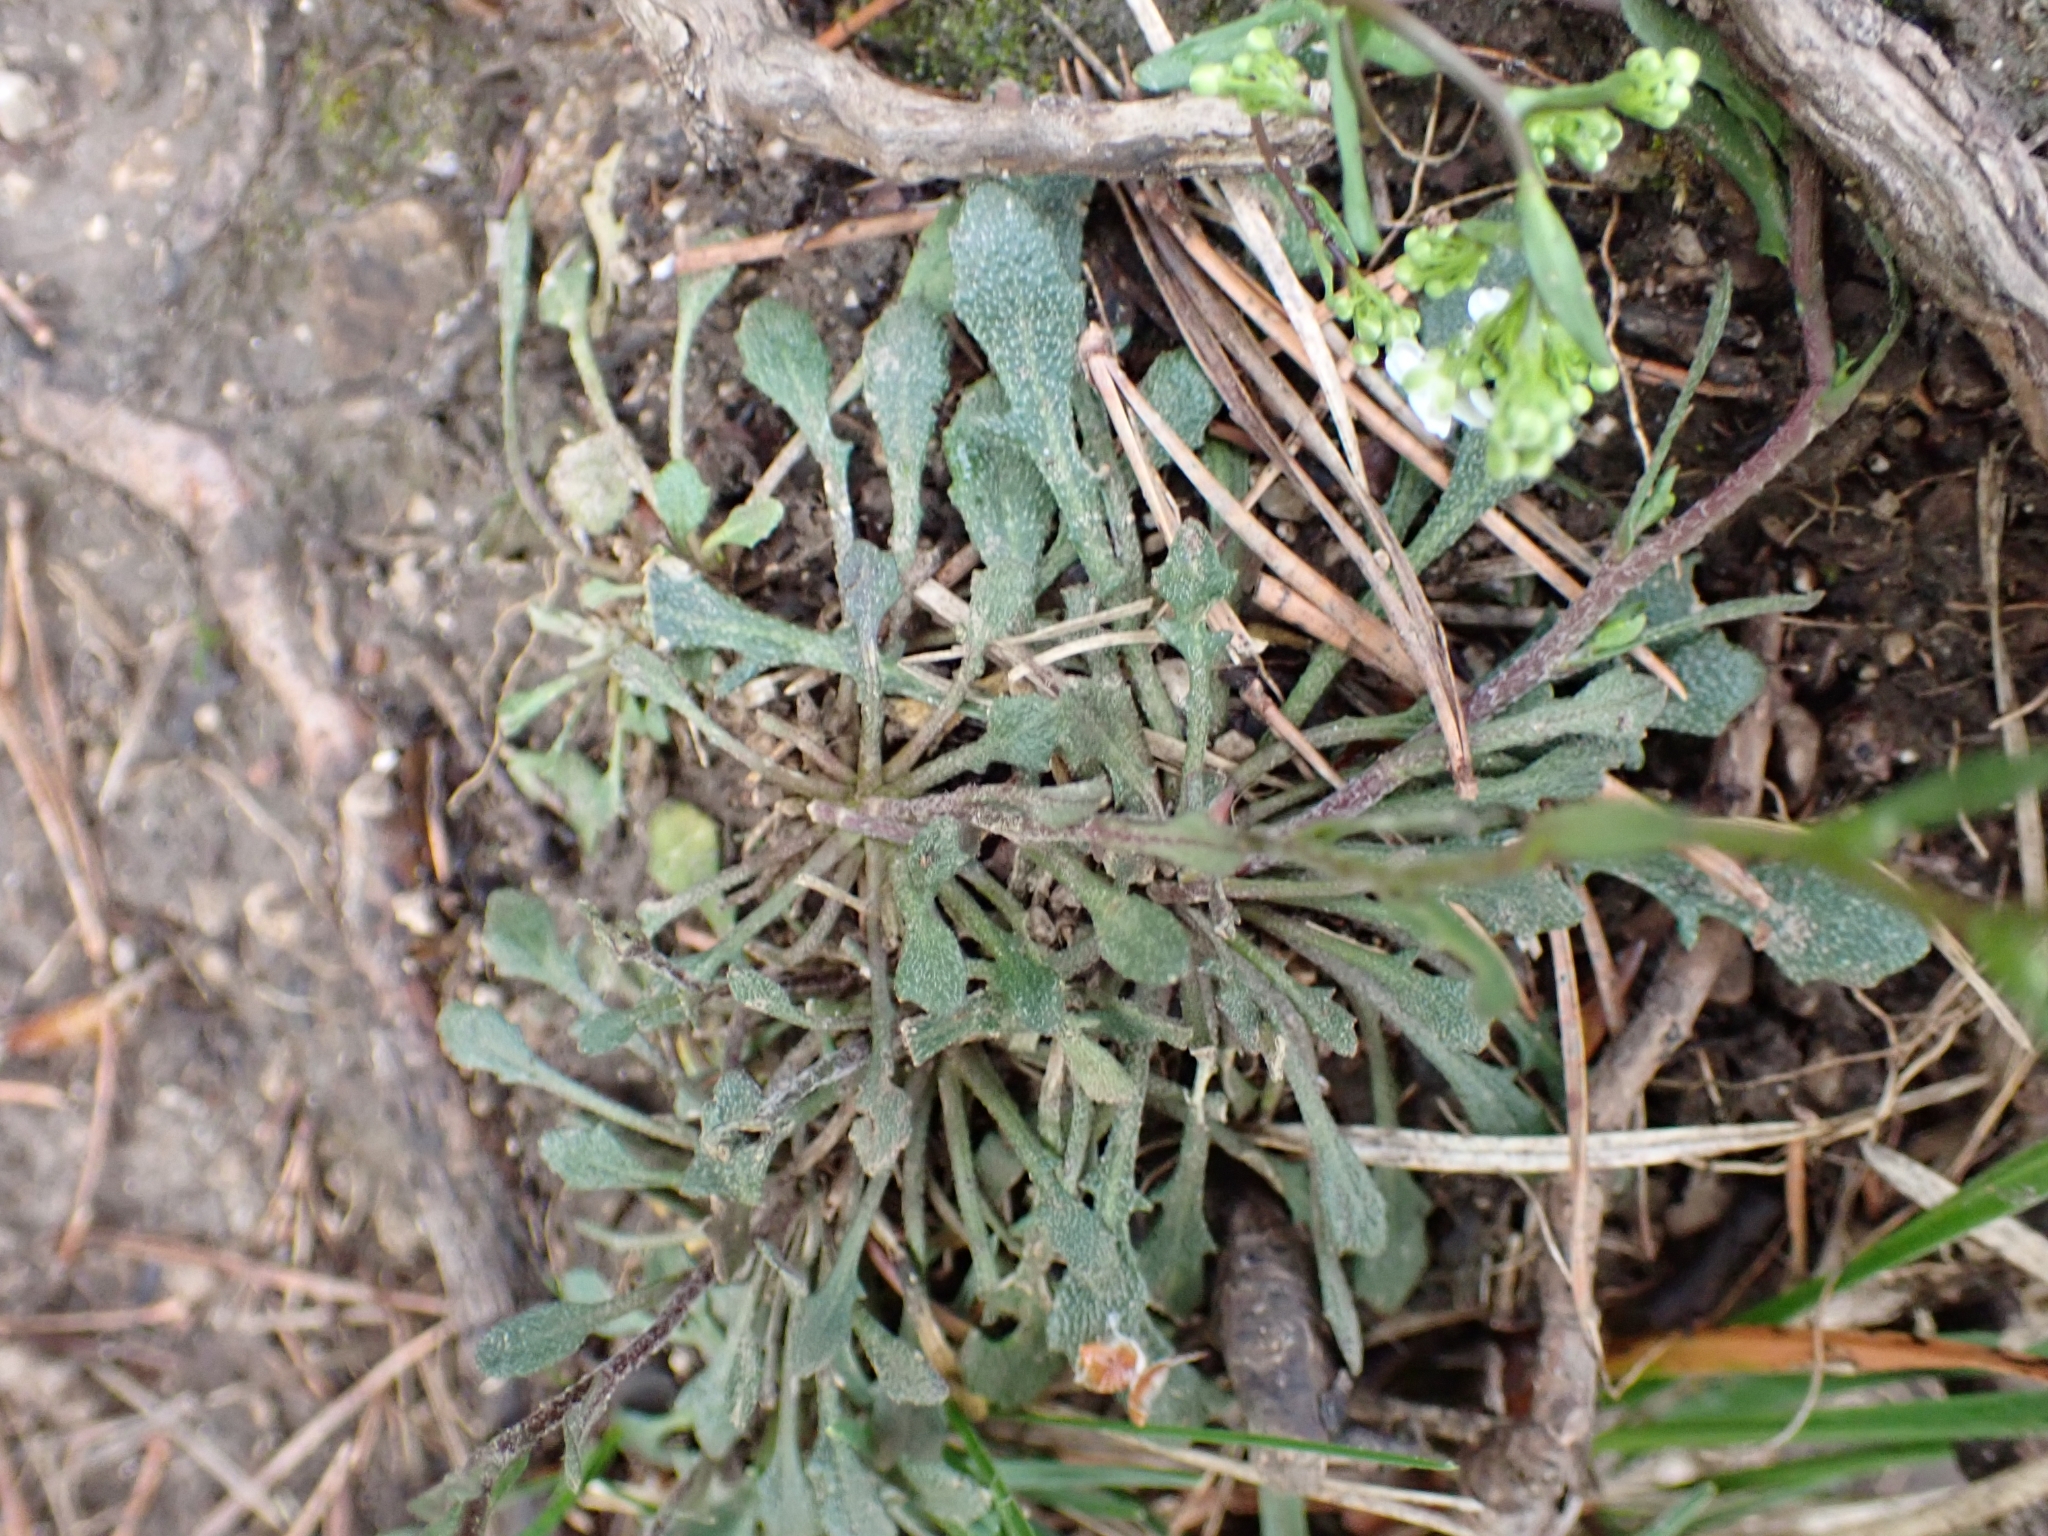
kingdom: Plantae
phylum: Tracheophyta
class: Magnoliopsida
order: Brassicales
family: Brassicaceae
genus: Kernera
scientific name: Kernera saxatilis
